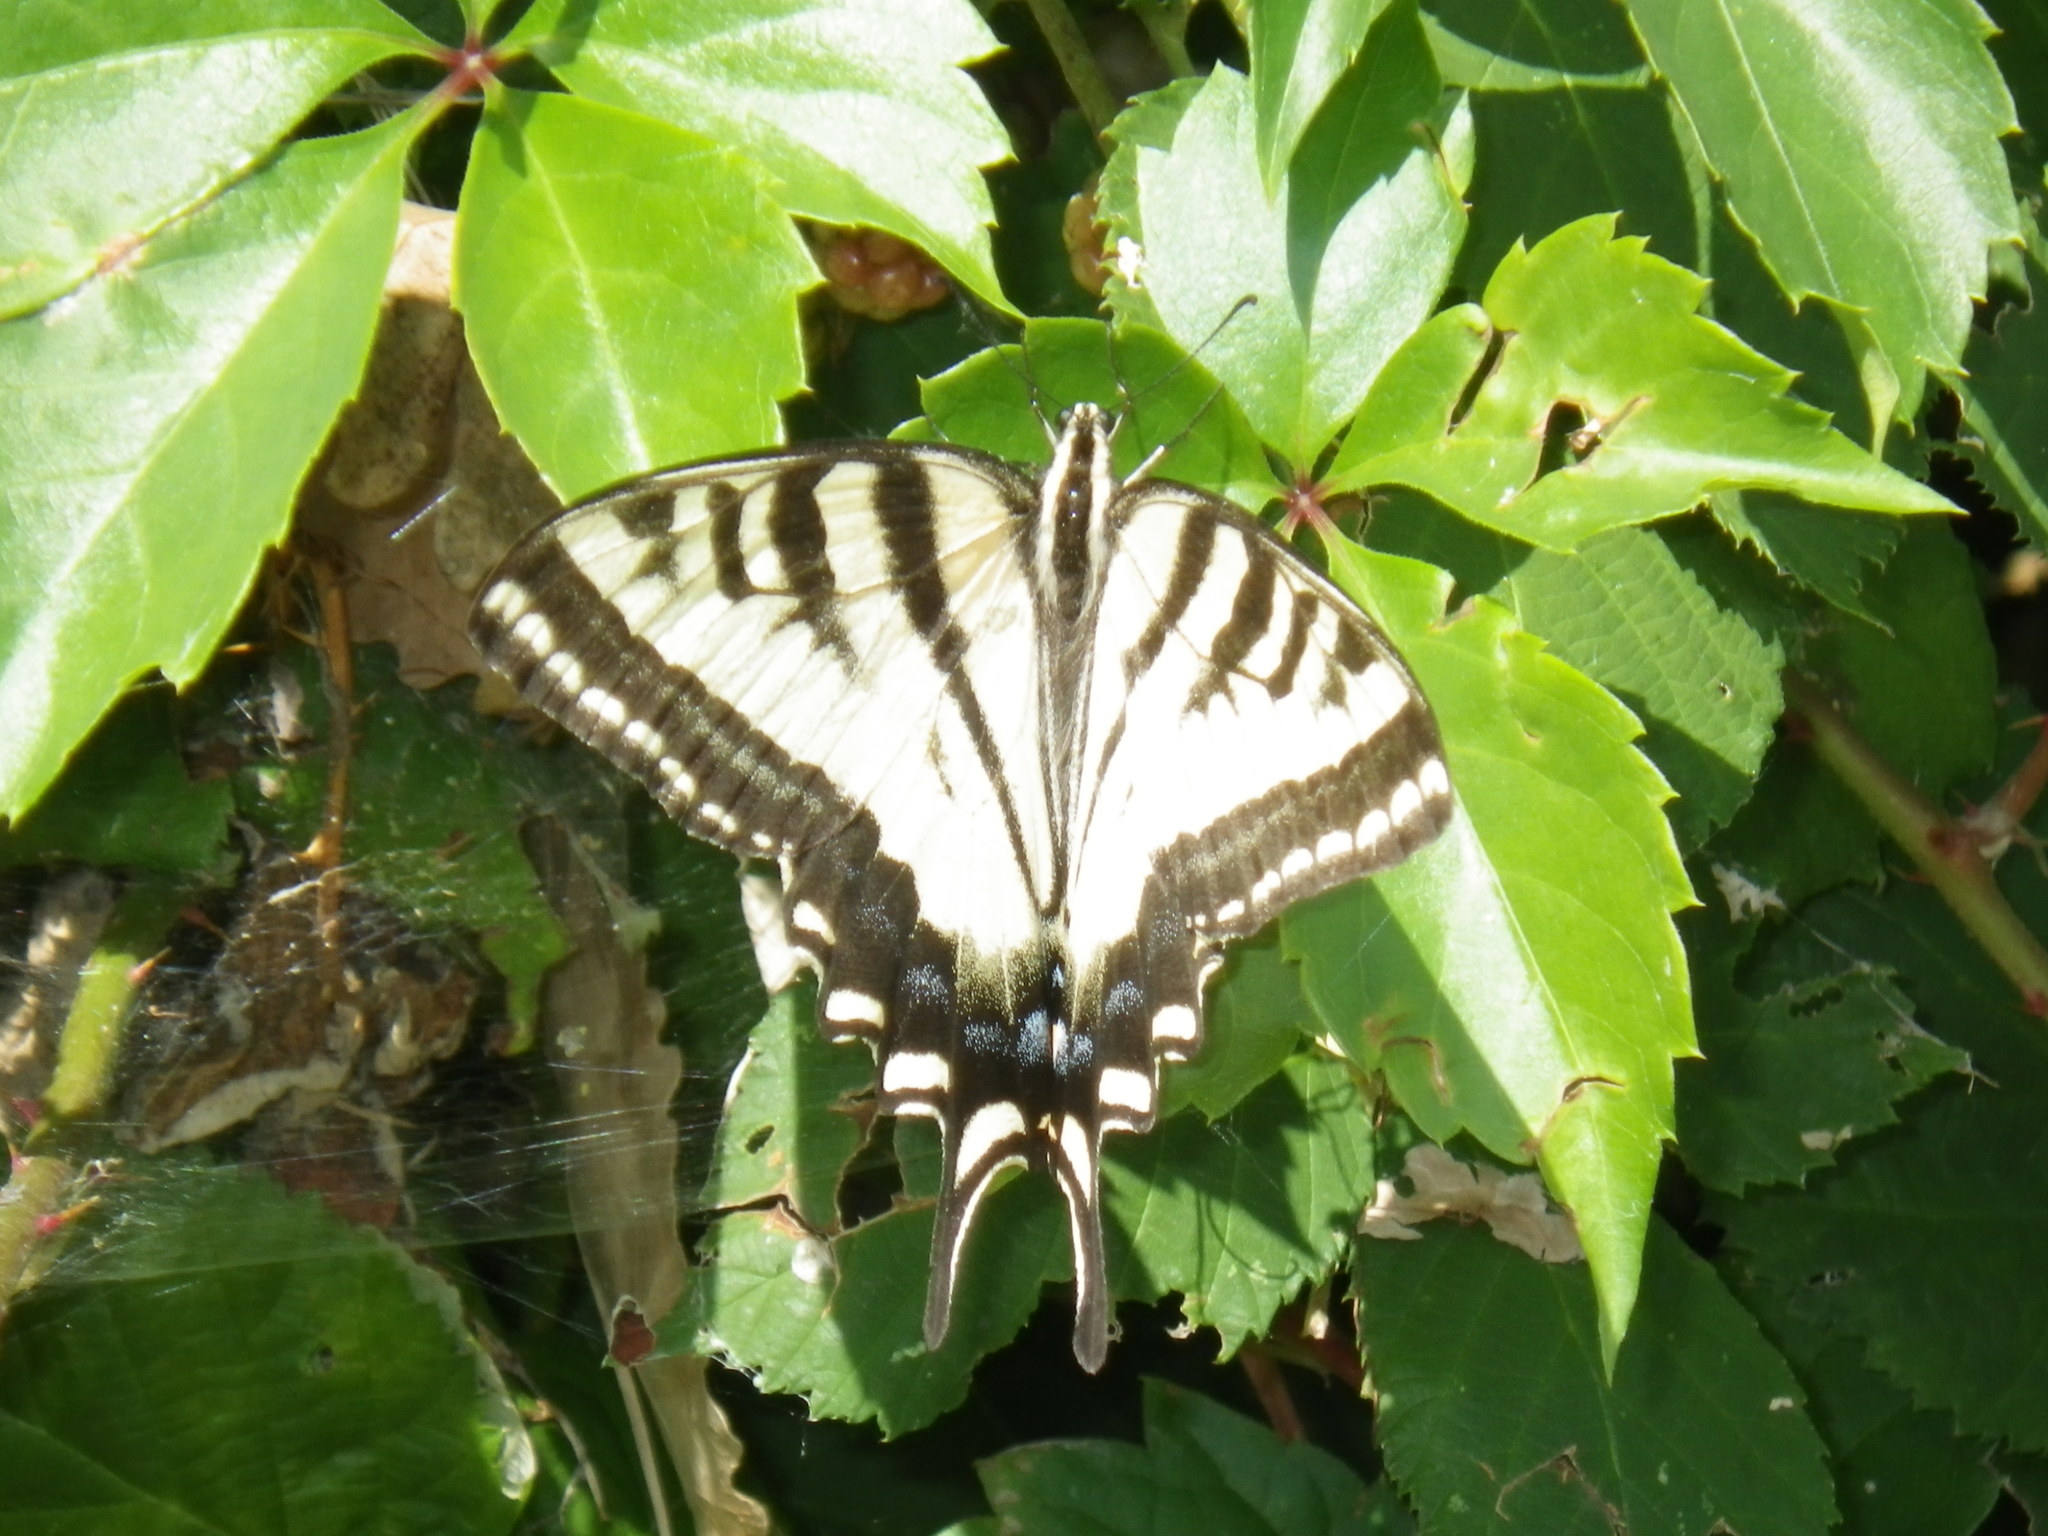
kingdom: Animalia
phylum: Arthropoda
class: Insecta
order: Lepidoptera
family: Papilionidae
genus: Papilio
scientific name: Papilio rutulus
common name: Western tiger swallowtail
